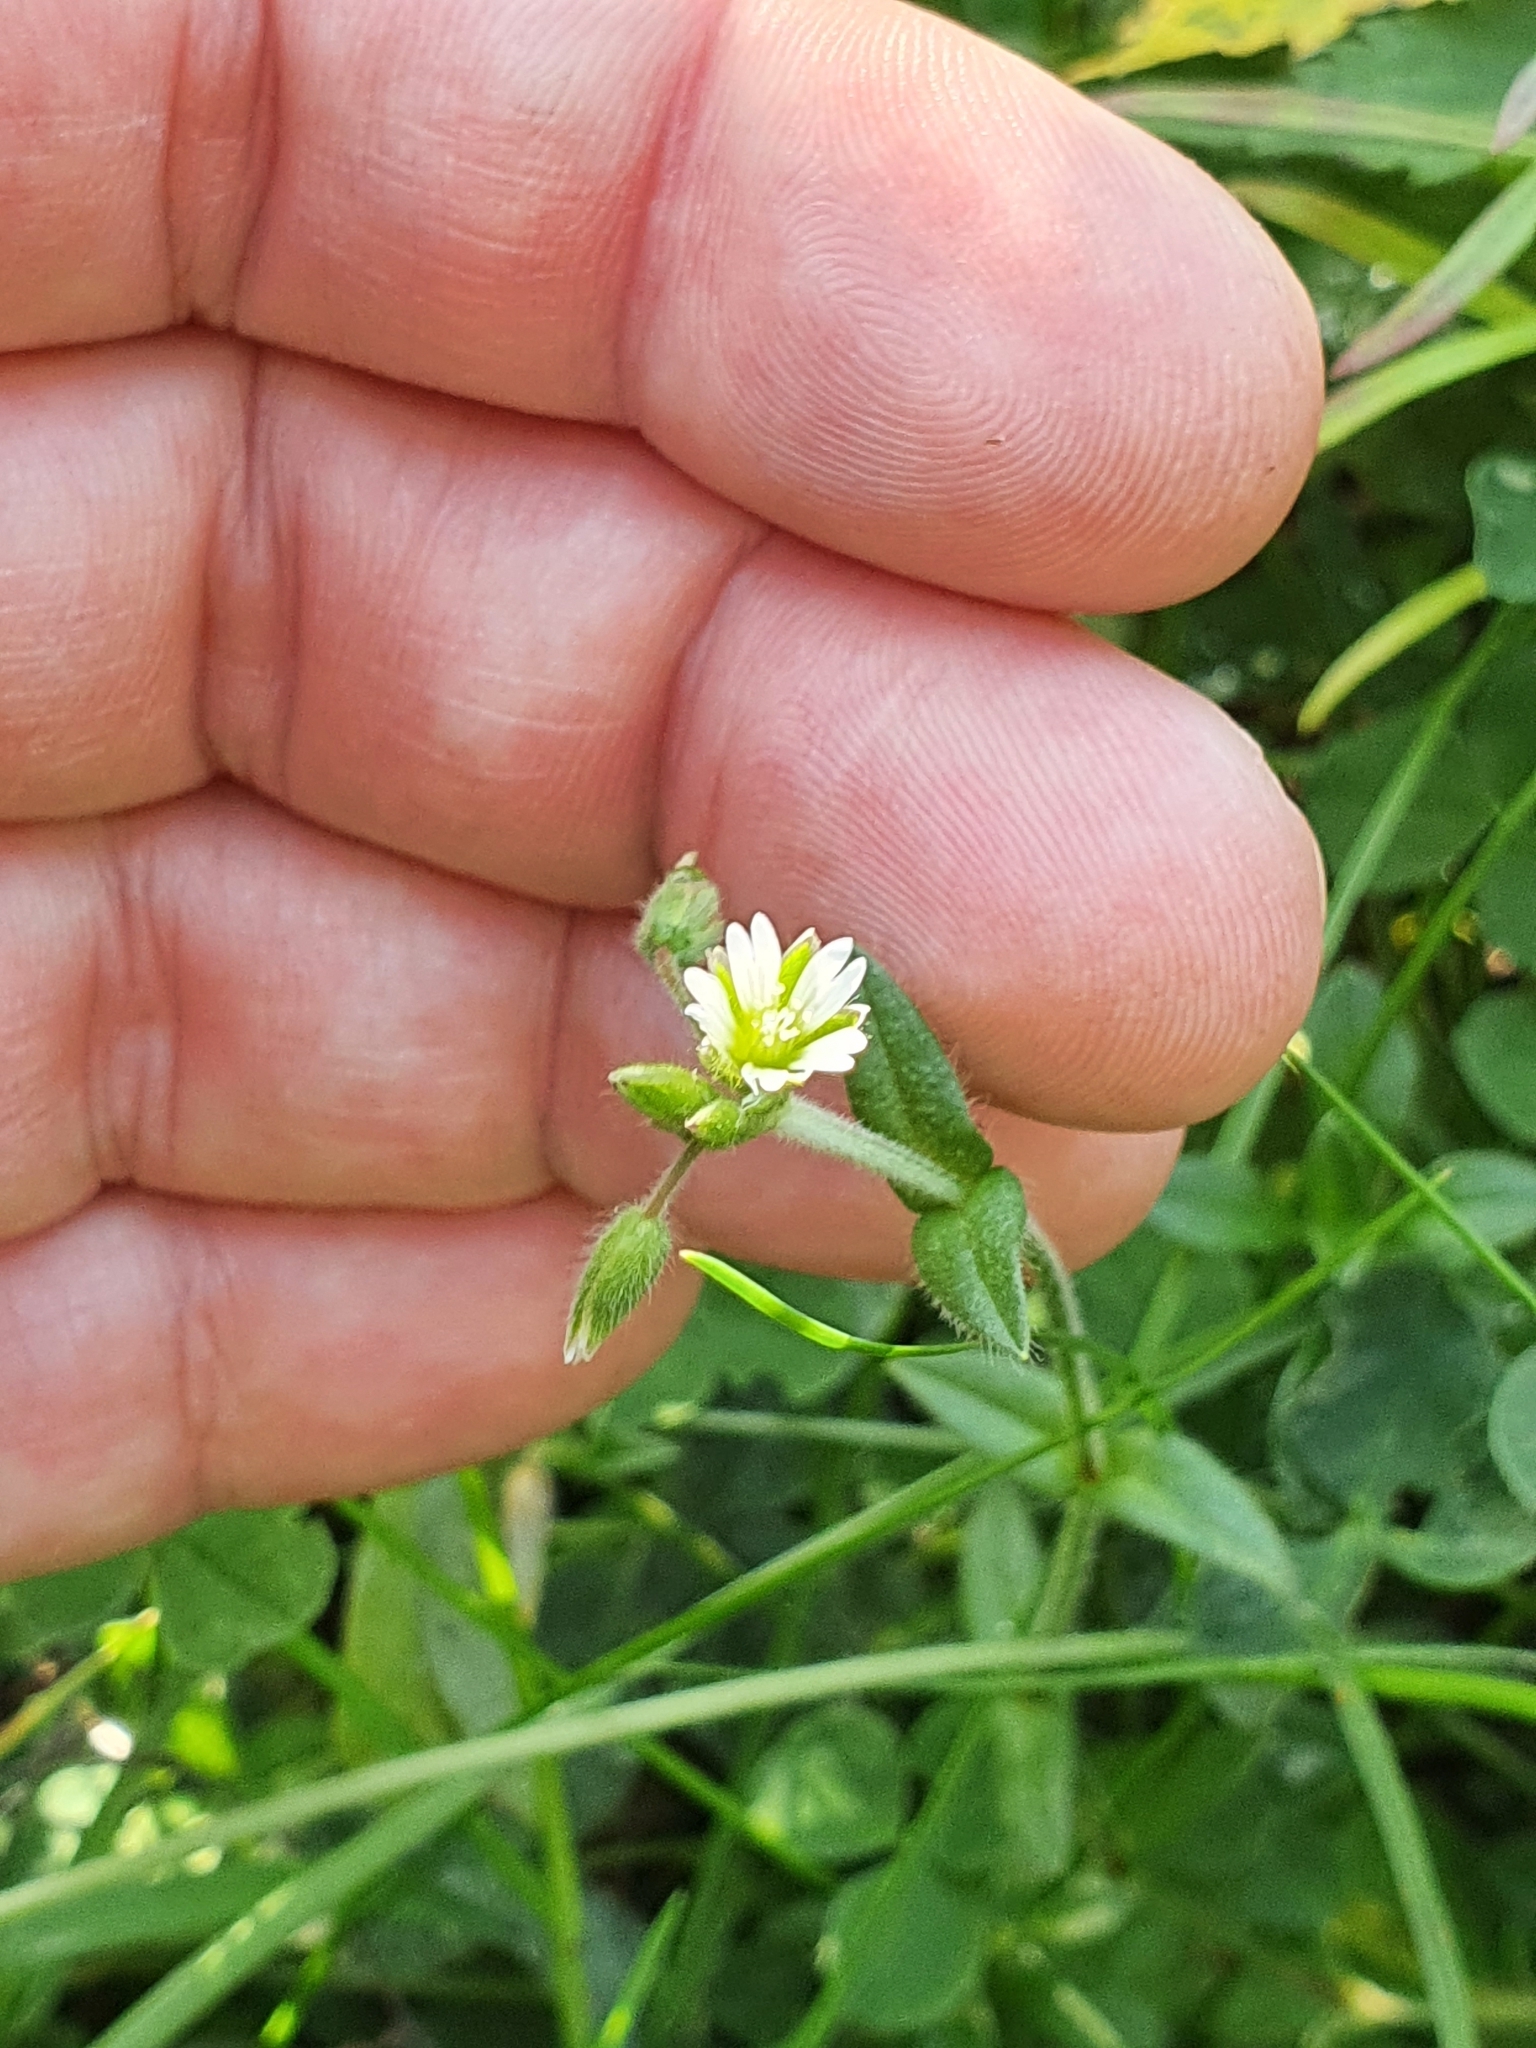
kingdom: Plantae
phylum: Tracheophyta
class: Magnoliopsida
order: Caryophyllales
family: Caryophyllaceae
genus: Cerastium
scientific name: Cerastium fontanum
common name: Common mouse-ear
